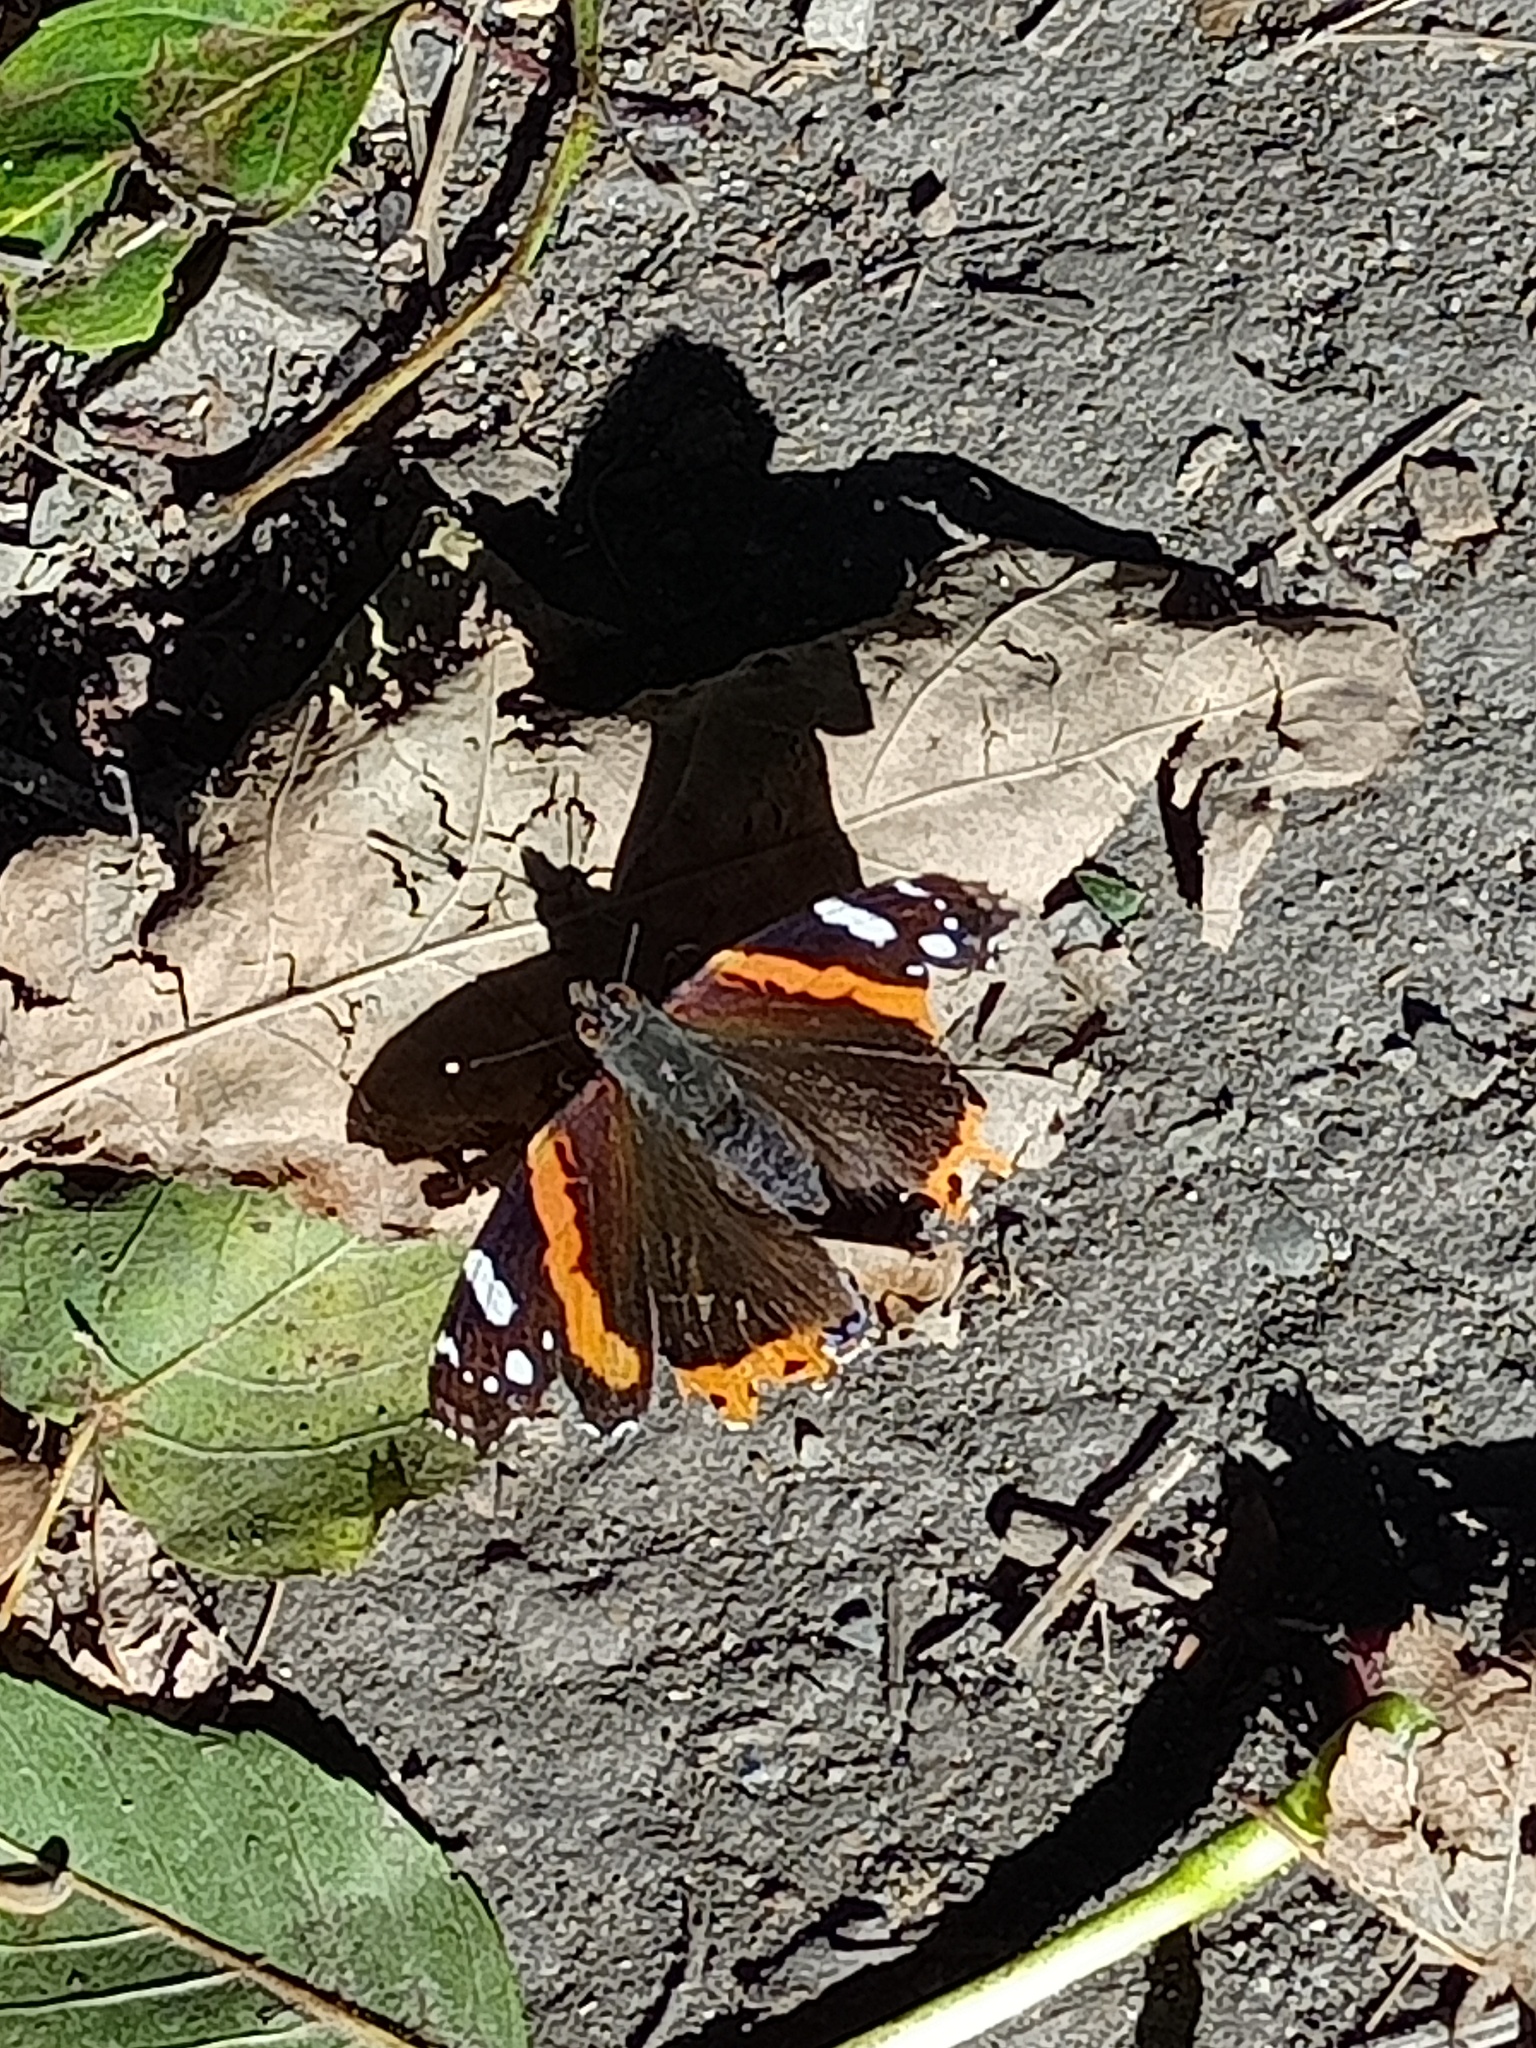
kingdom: Animalia
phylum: Arthropoda
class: Insecta
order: Lepidoptera
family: Nymphalidae
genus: Vanessa
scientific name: Vanessa atalanta
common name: Red admiral
